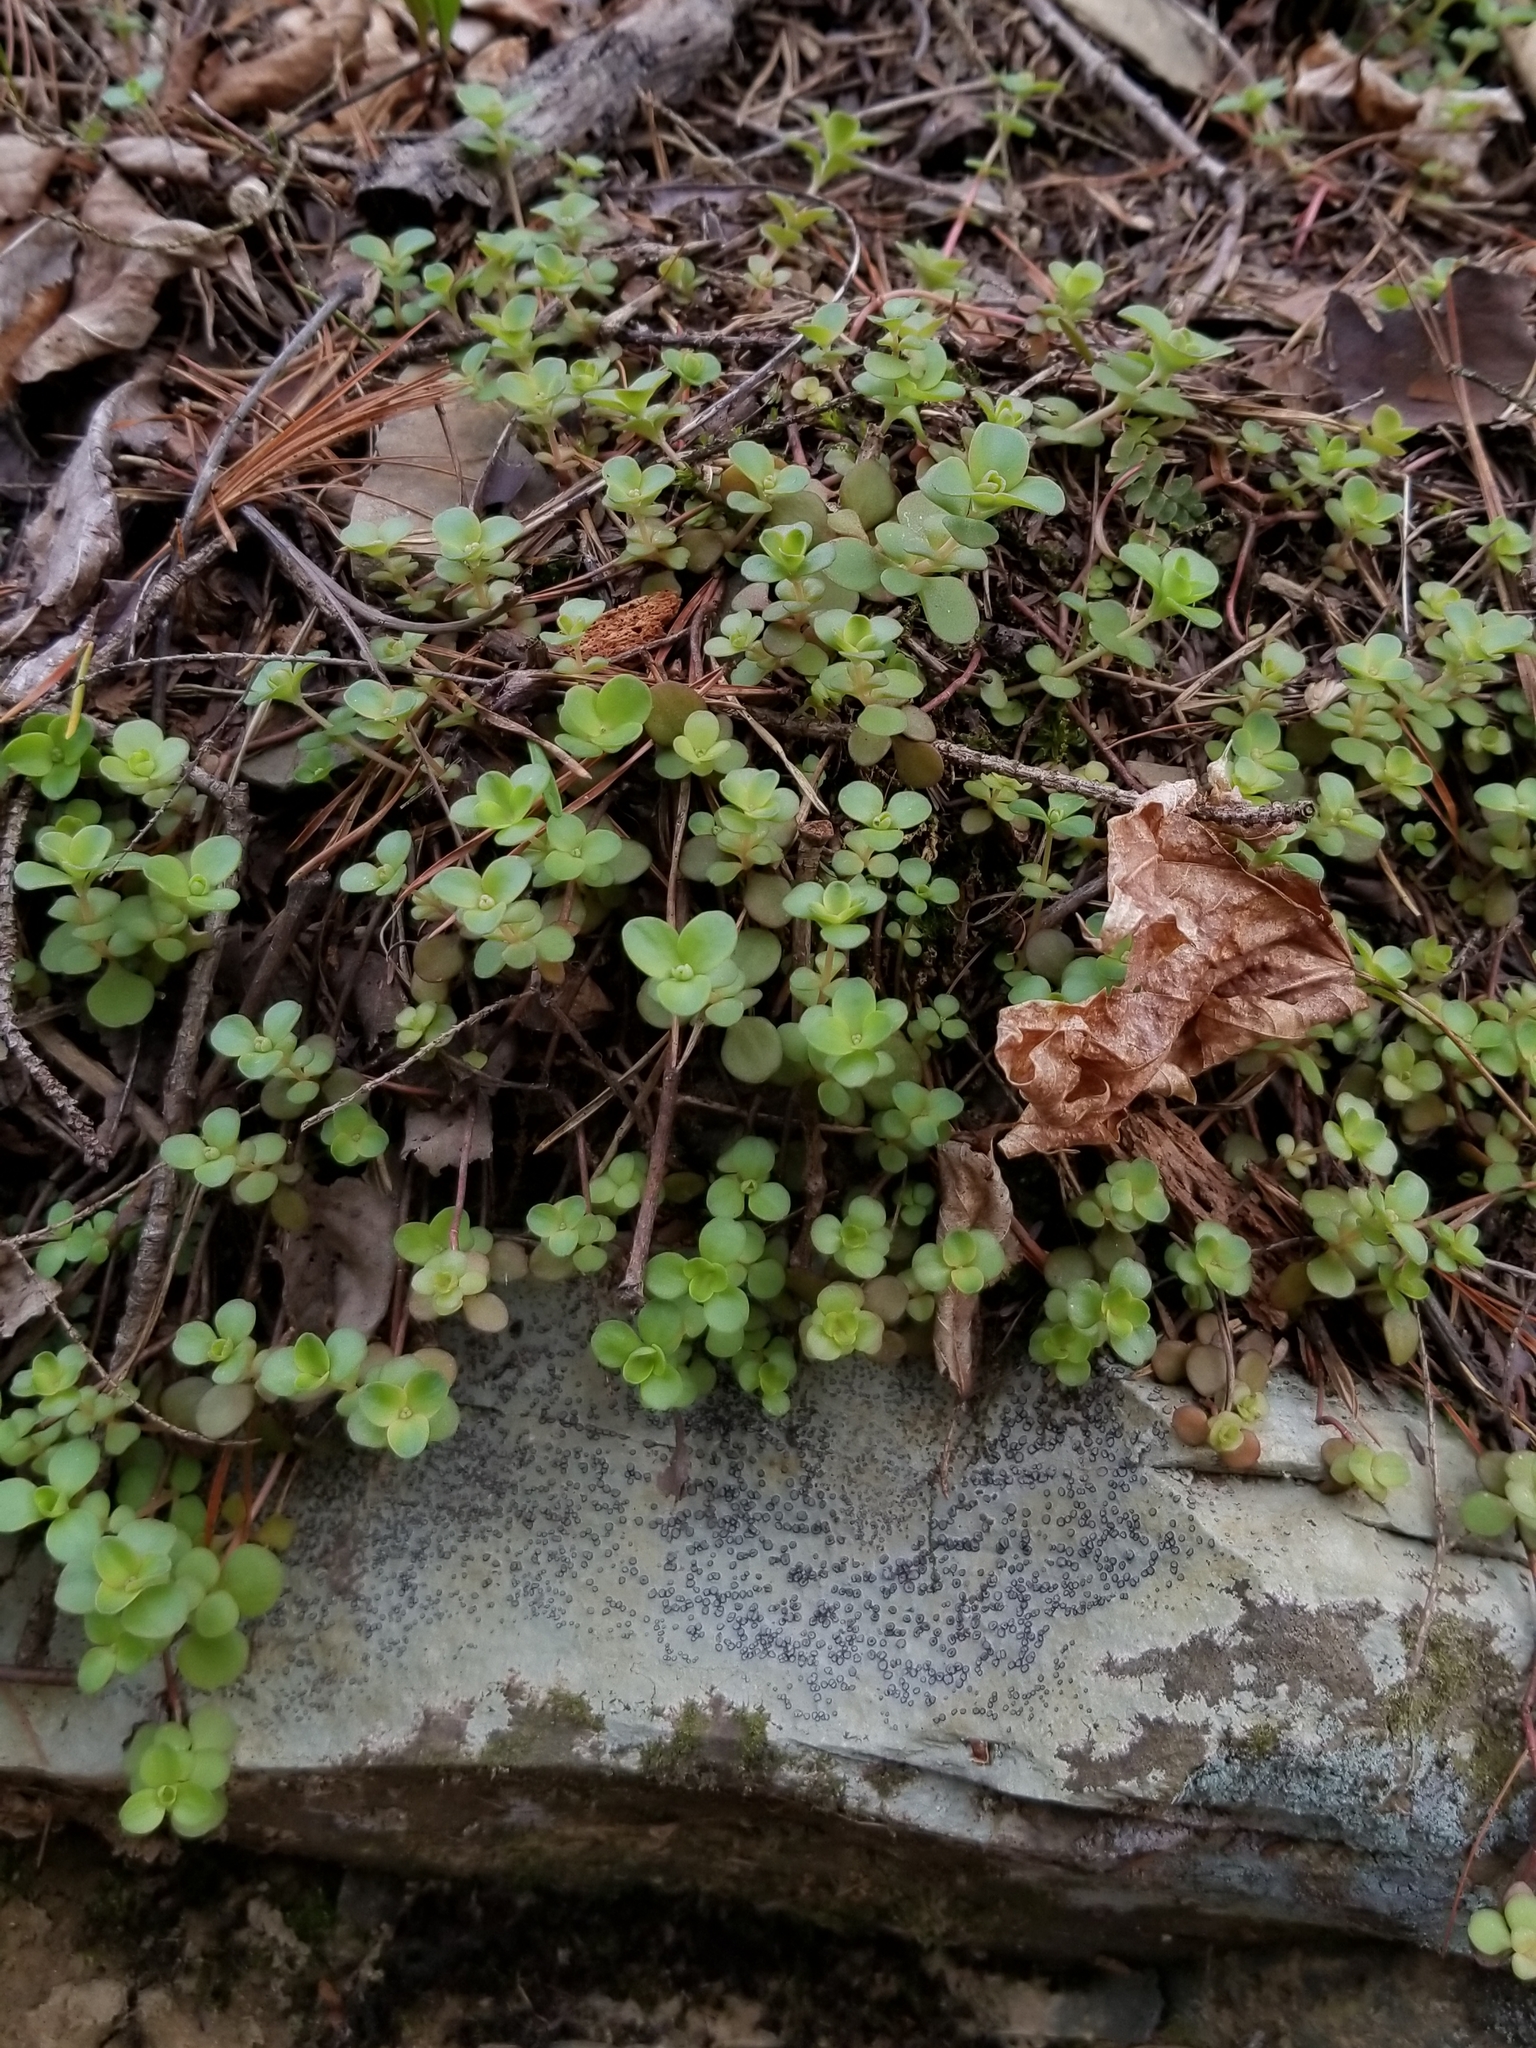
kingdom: Plantae
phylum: Tracheophyta
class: Magnoliopsida
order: Saxifragales
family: Crassulaceae
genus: Sedum
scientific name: Sedum ternatum
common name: Wild stonecrop
